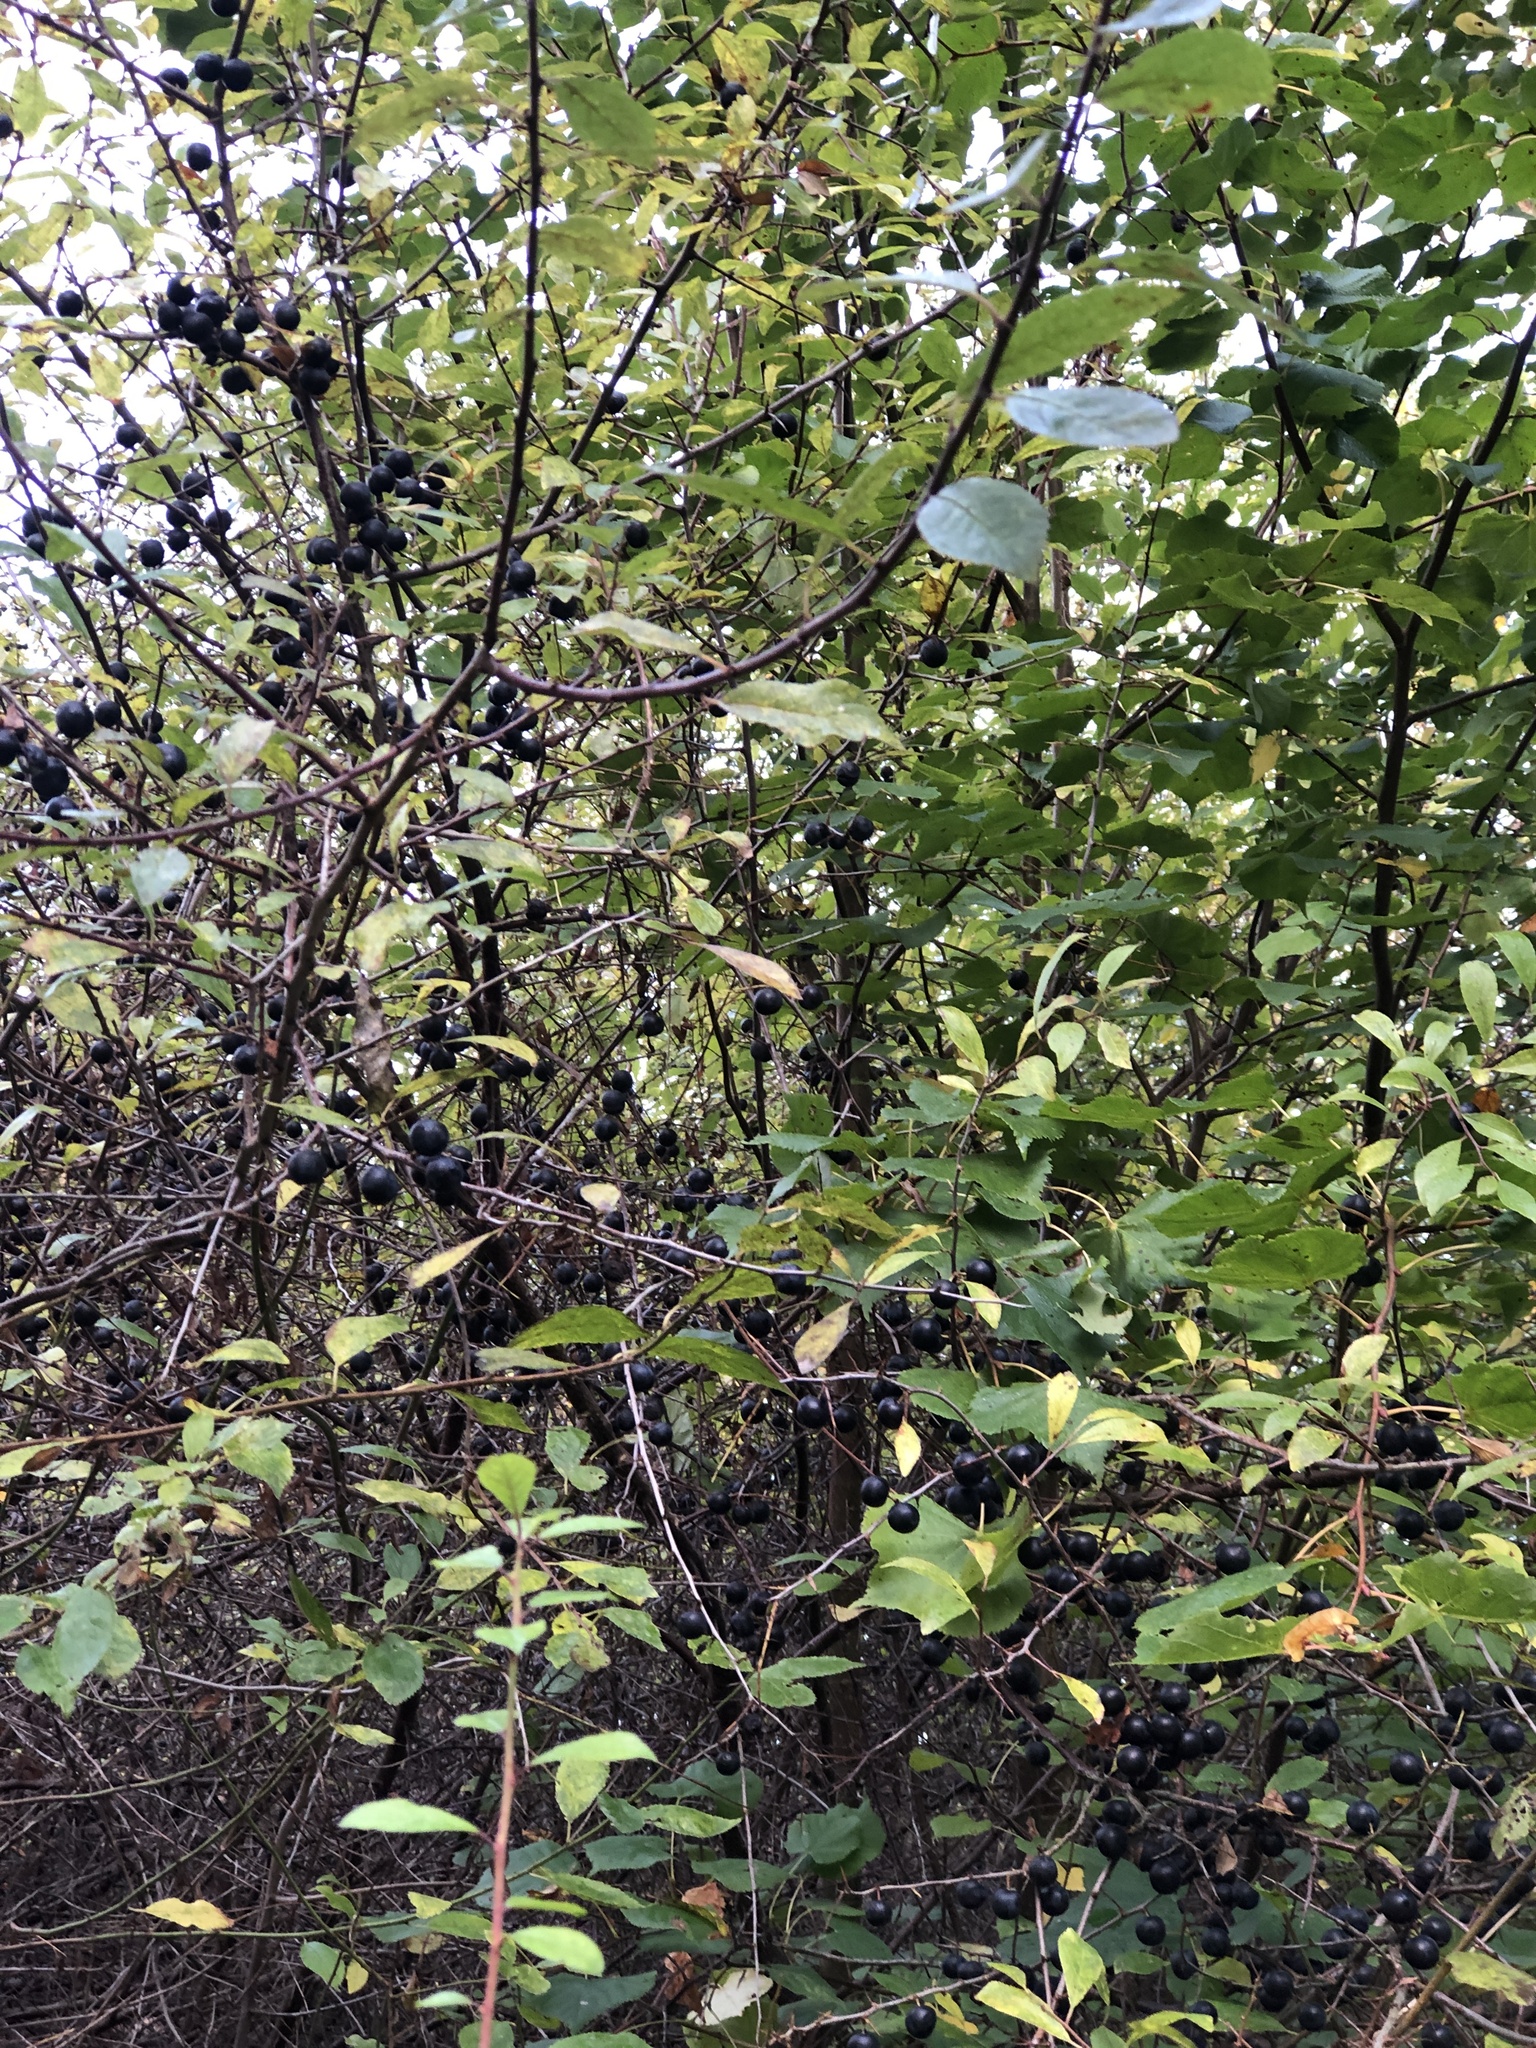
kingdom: Plantae
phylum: Tracheophyta
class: Magnoliopsida
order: Rosales
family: Rosaceae
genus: Prunus
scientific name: Prunus spinosa
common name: Blackthorn
